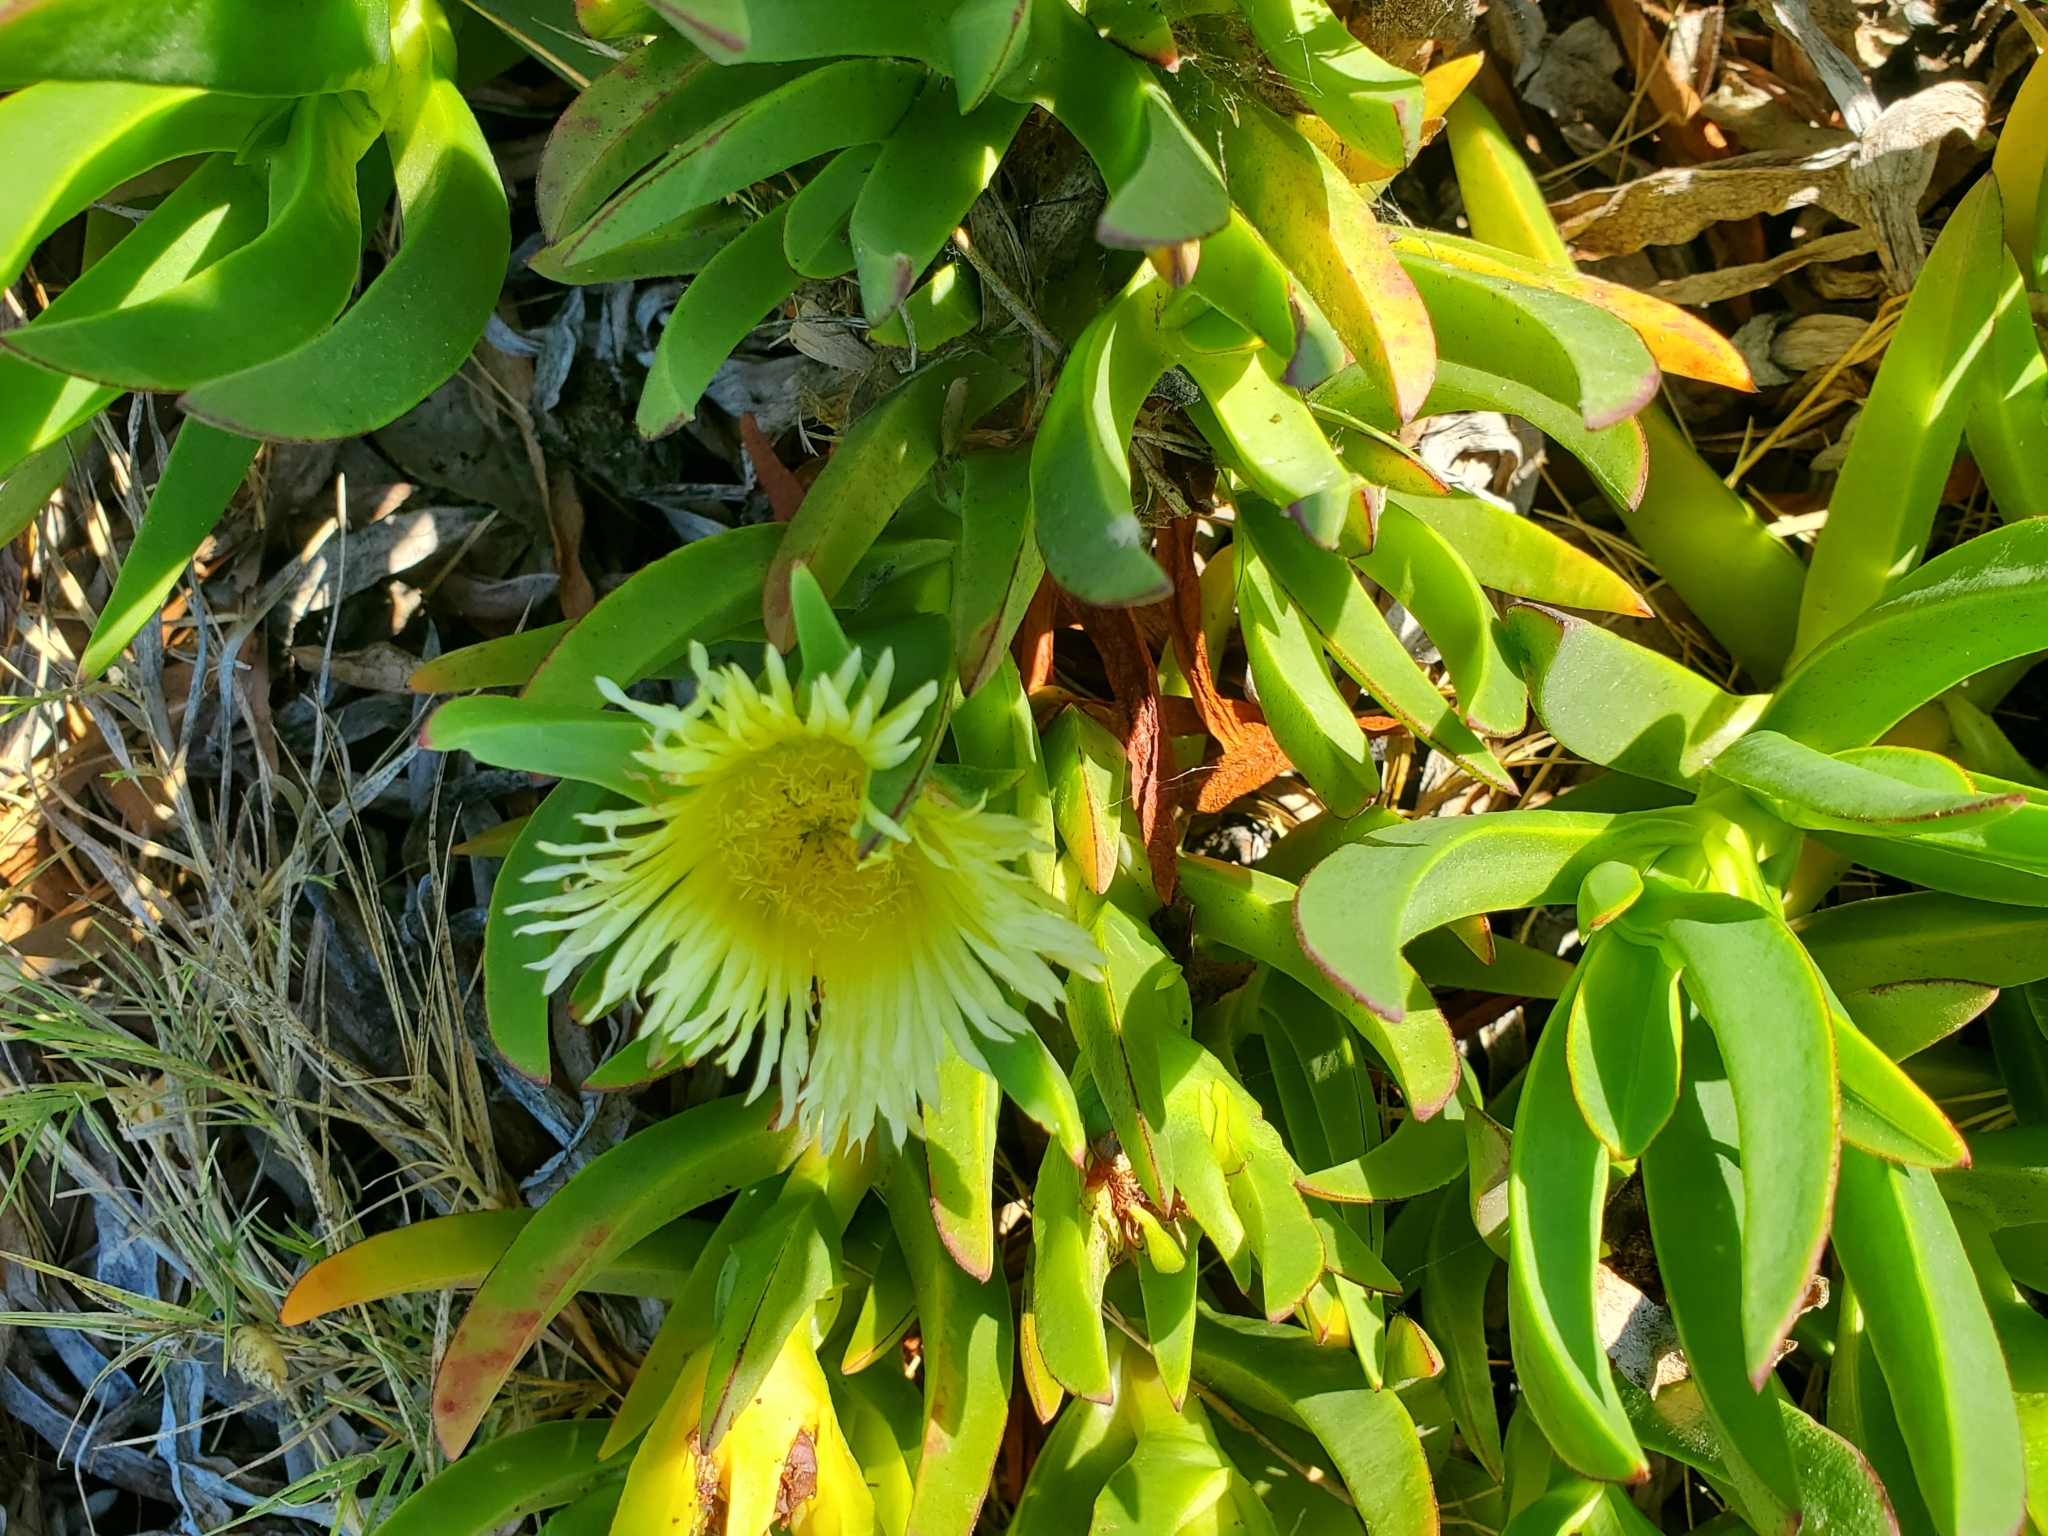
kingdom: Plantae
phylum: Tracheophyta
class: Magnoliopsida
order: Caryophyllales
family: Aizoaceae
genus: Carpobrotus
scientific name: Carpobrotus edulis
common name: Hottentot-fig
